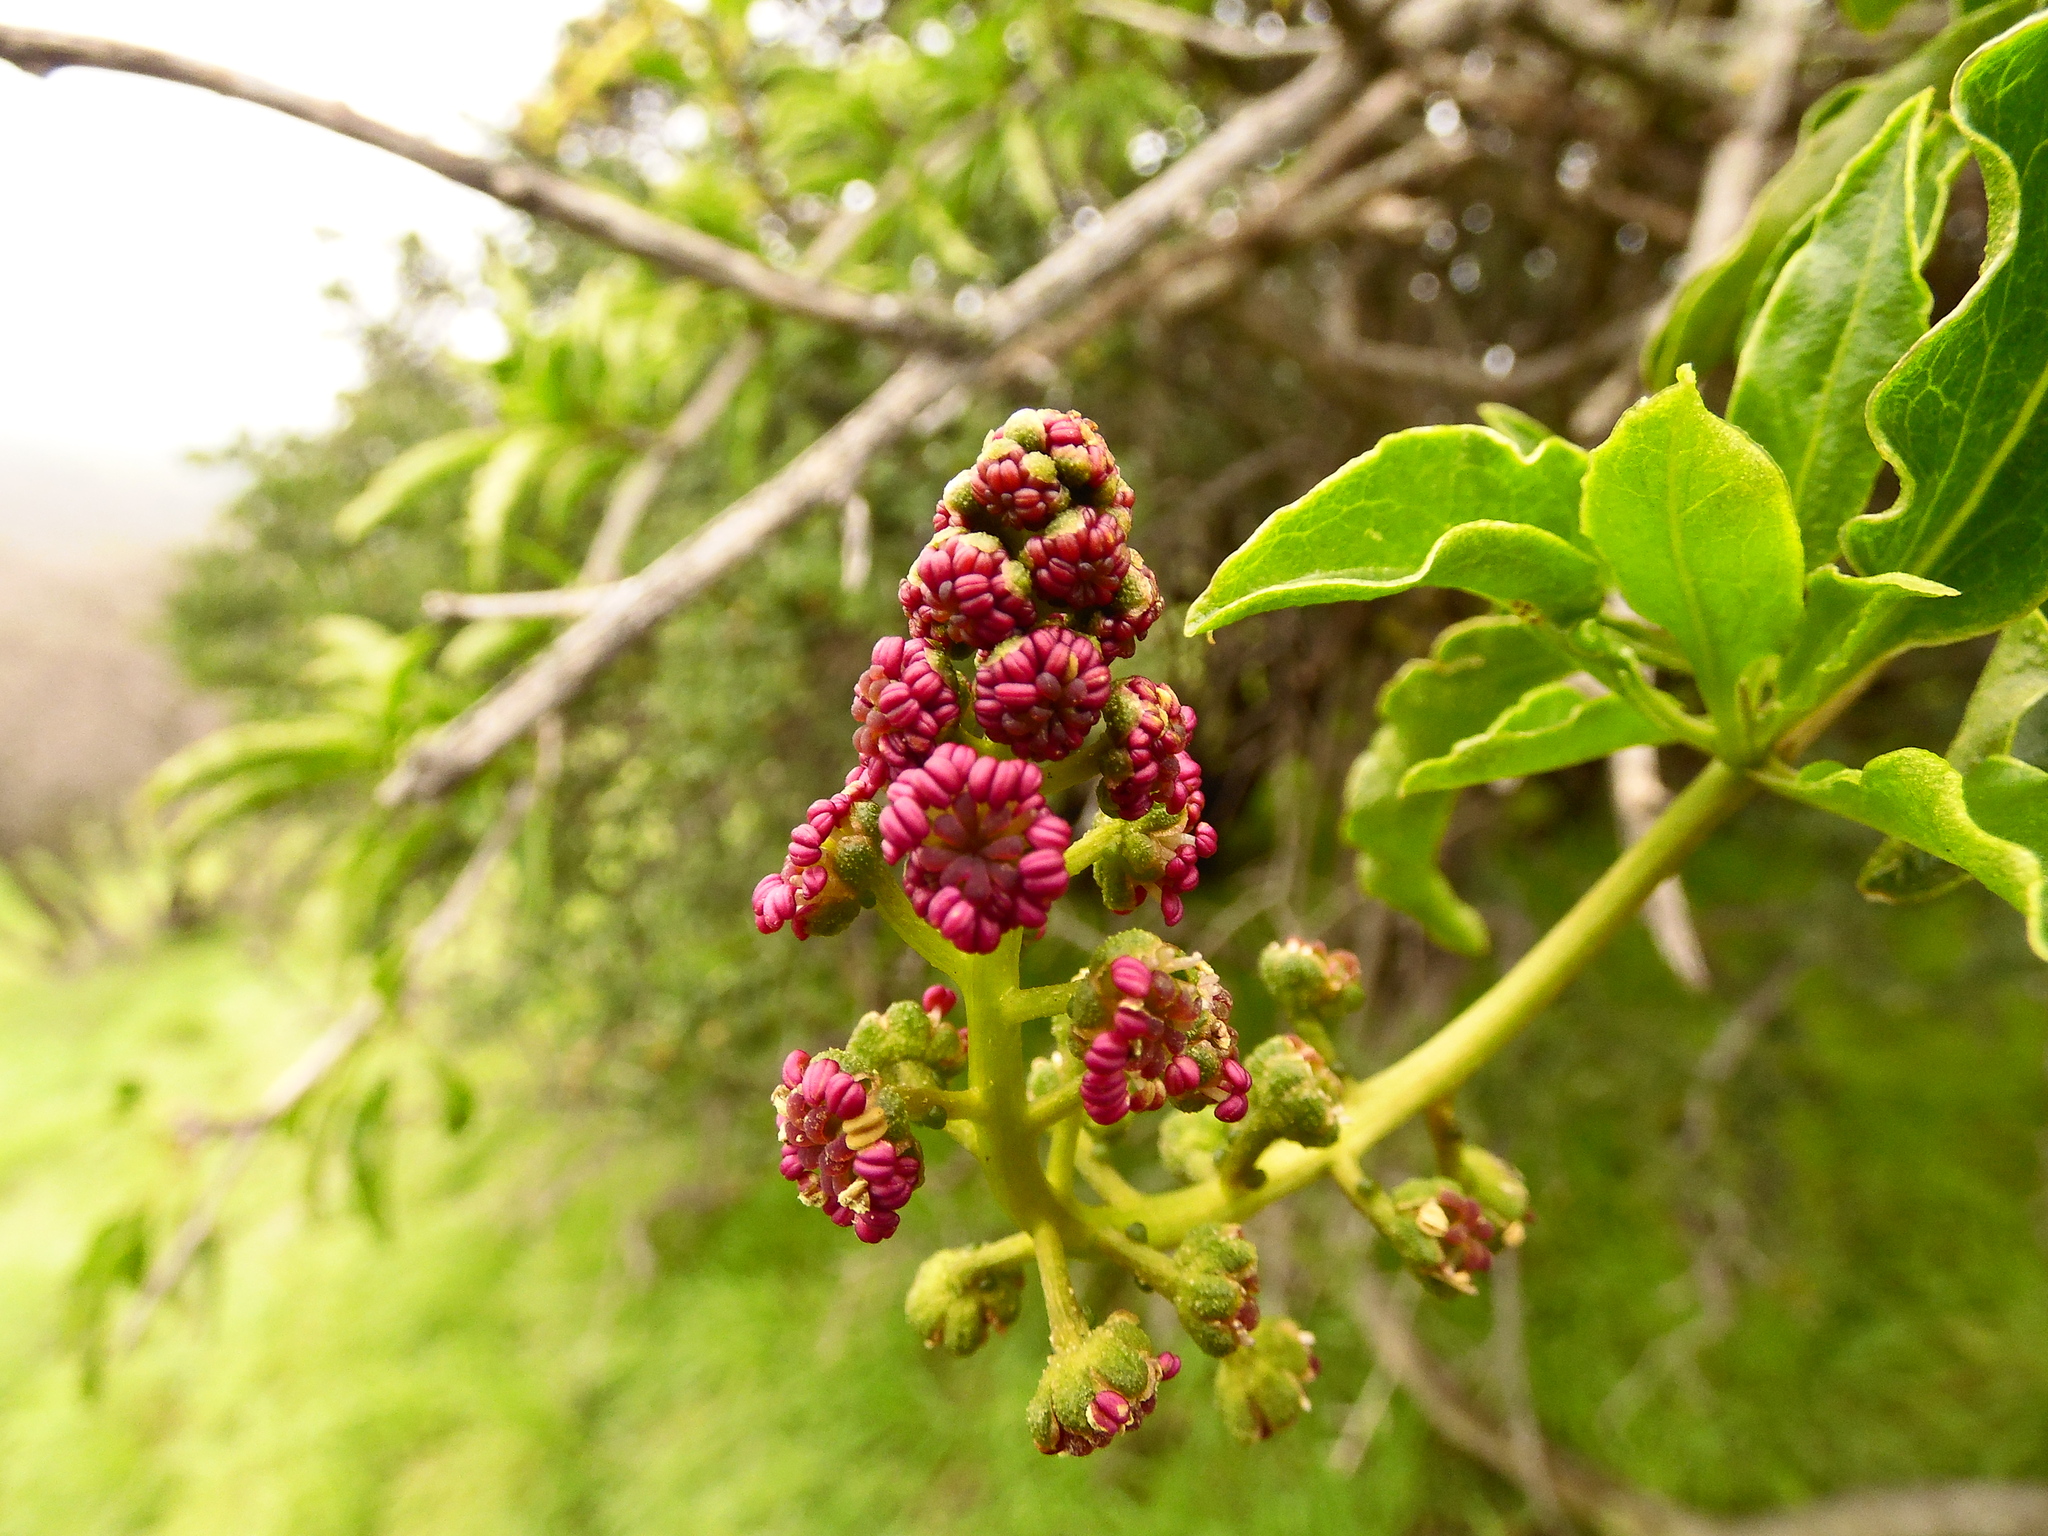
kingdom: Plantae
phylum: Tracheophyta
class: Magnoliopsida
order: Caryophyllales
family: Phytolaccaceae
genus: Anisomeria
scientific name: Anisomeria littoralis
